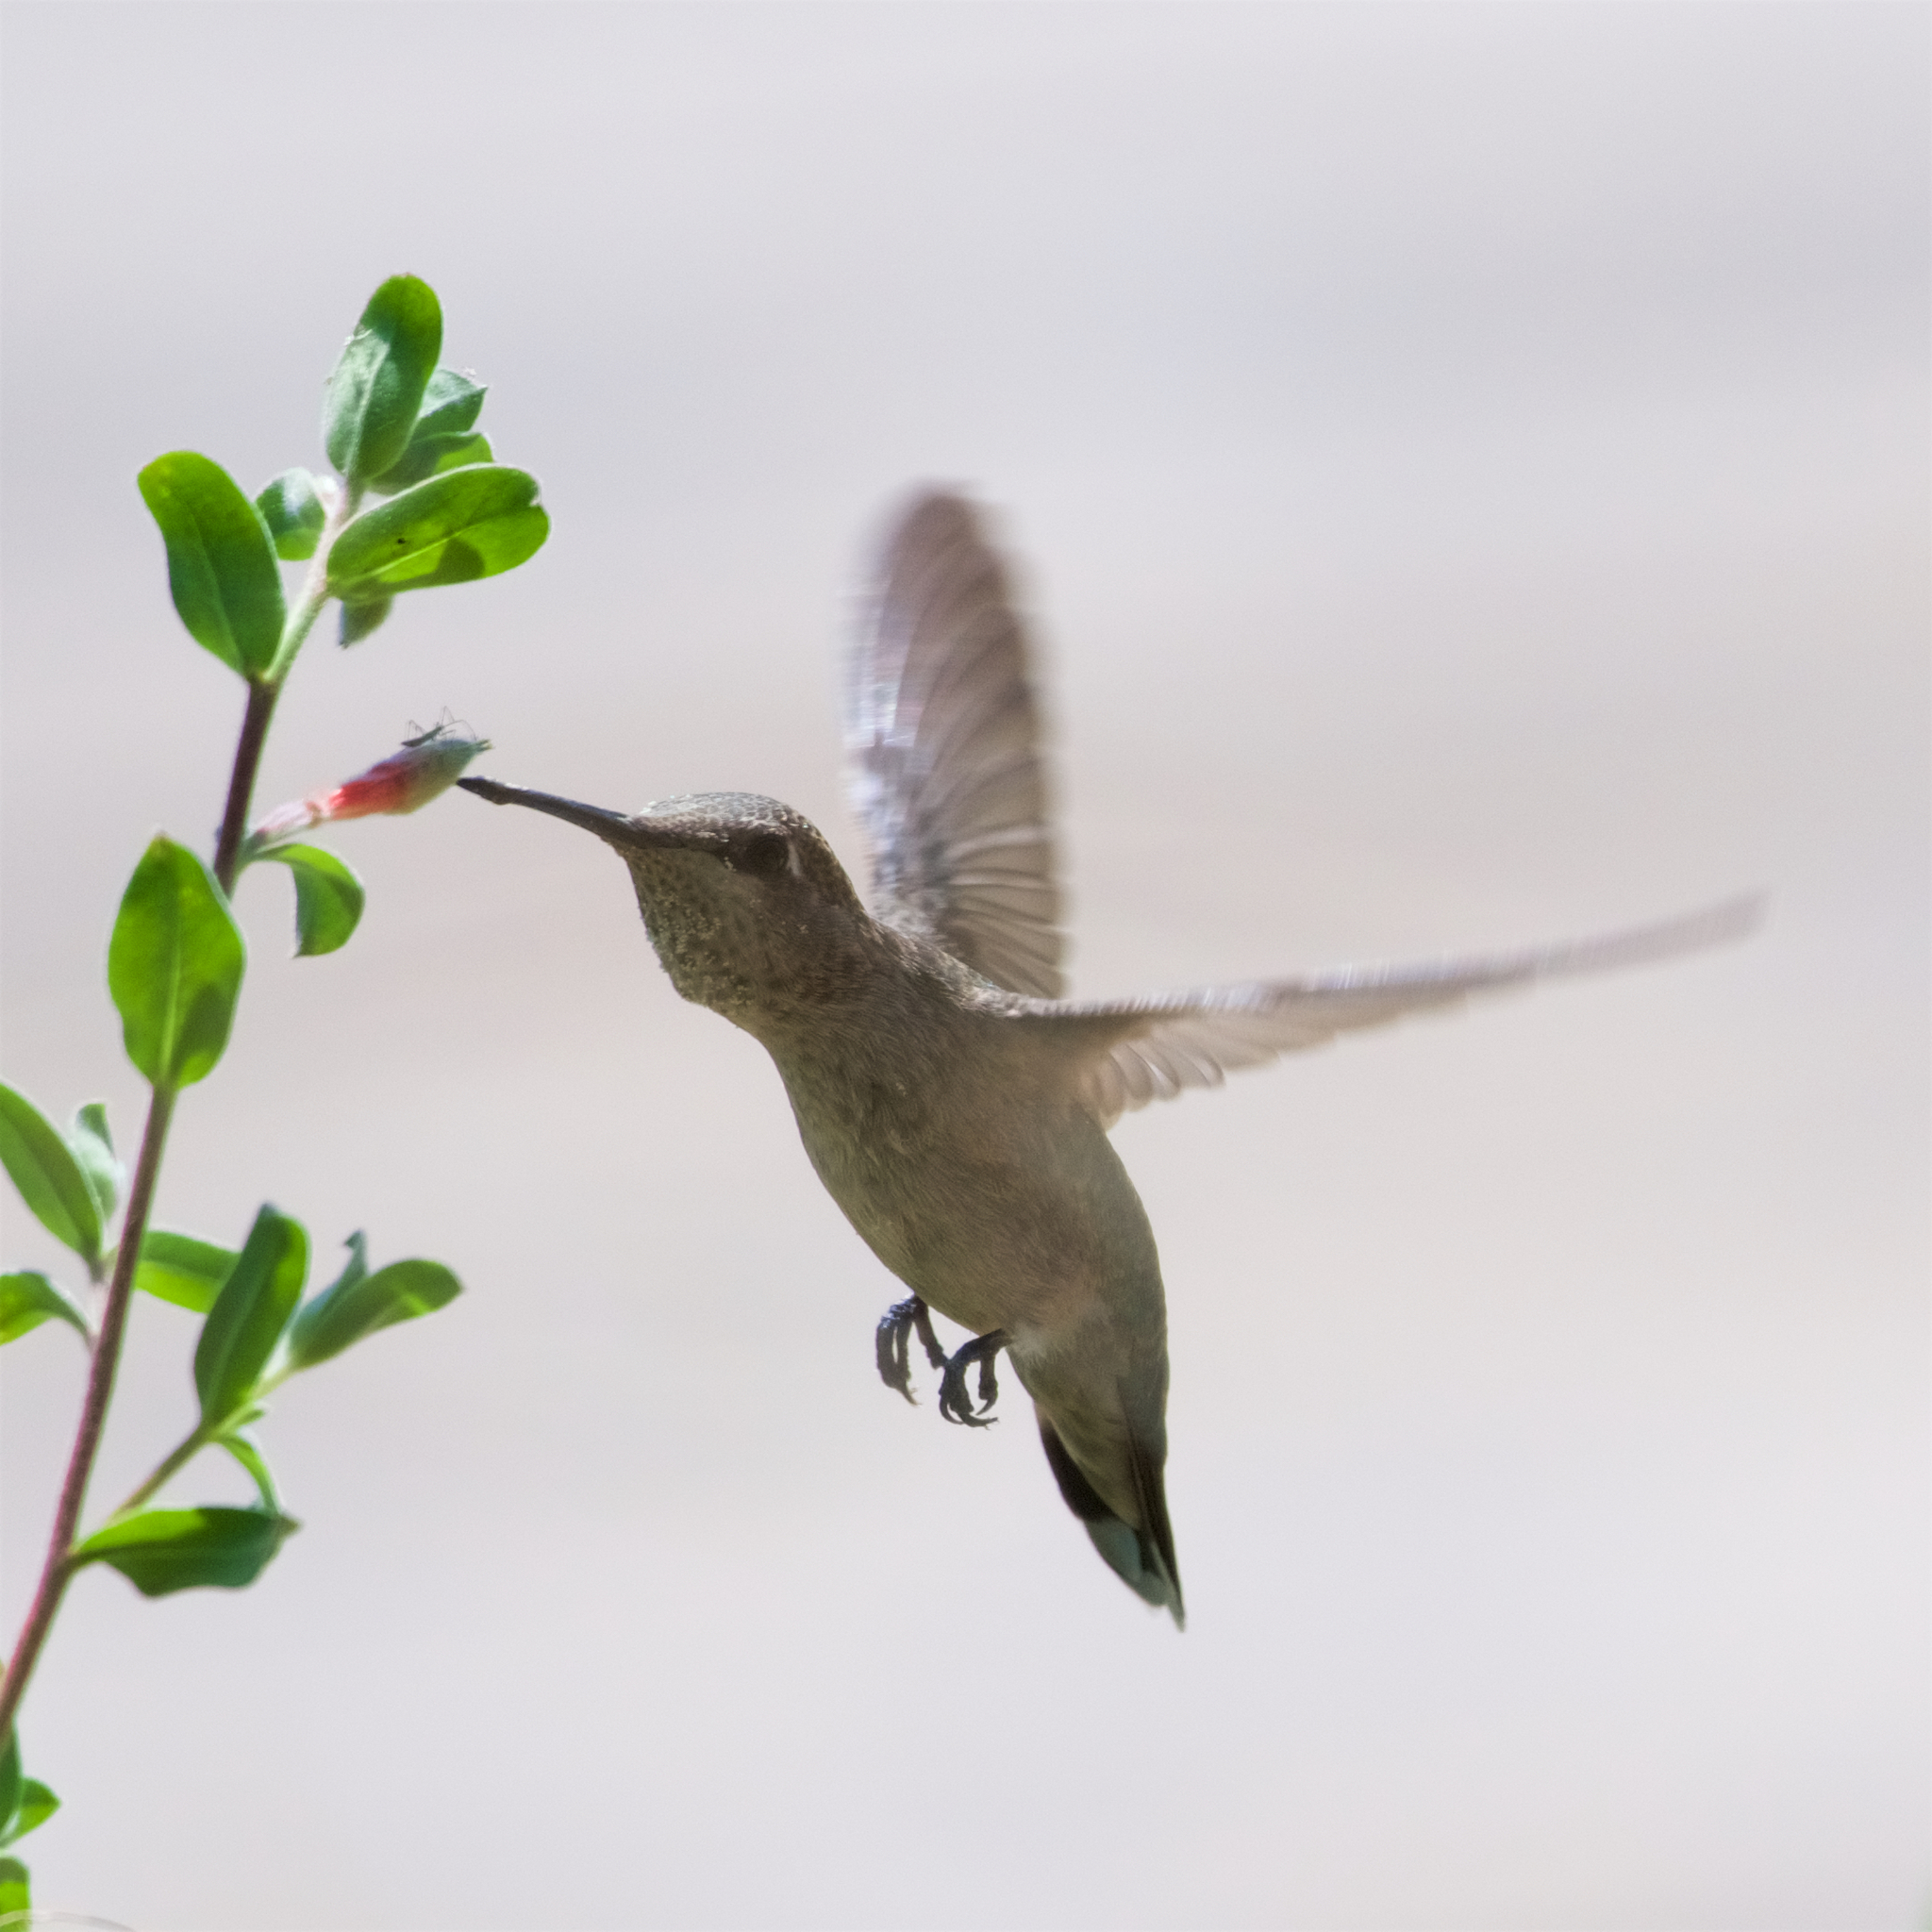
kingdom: Animalia
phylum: Chordata
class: Aves
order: Apodiformes
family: Trochilidae
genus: Calypte
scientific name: Calypte anna
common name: Anna's hummingbird
